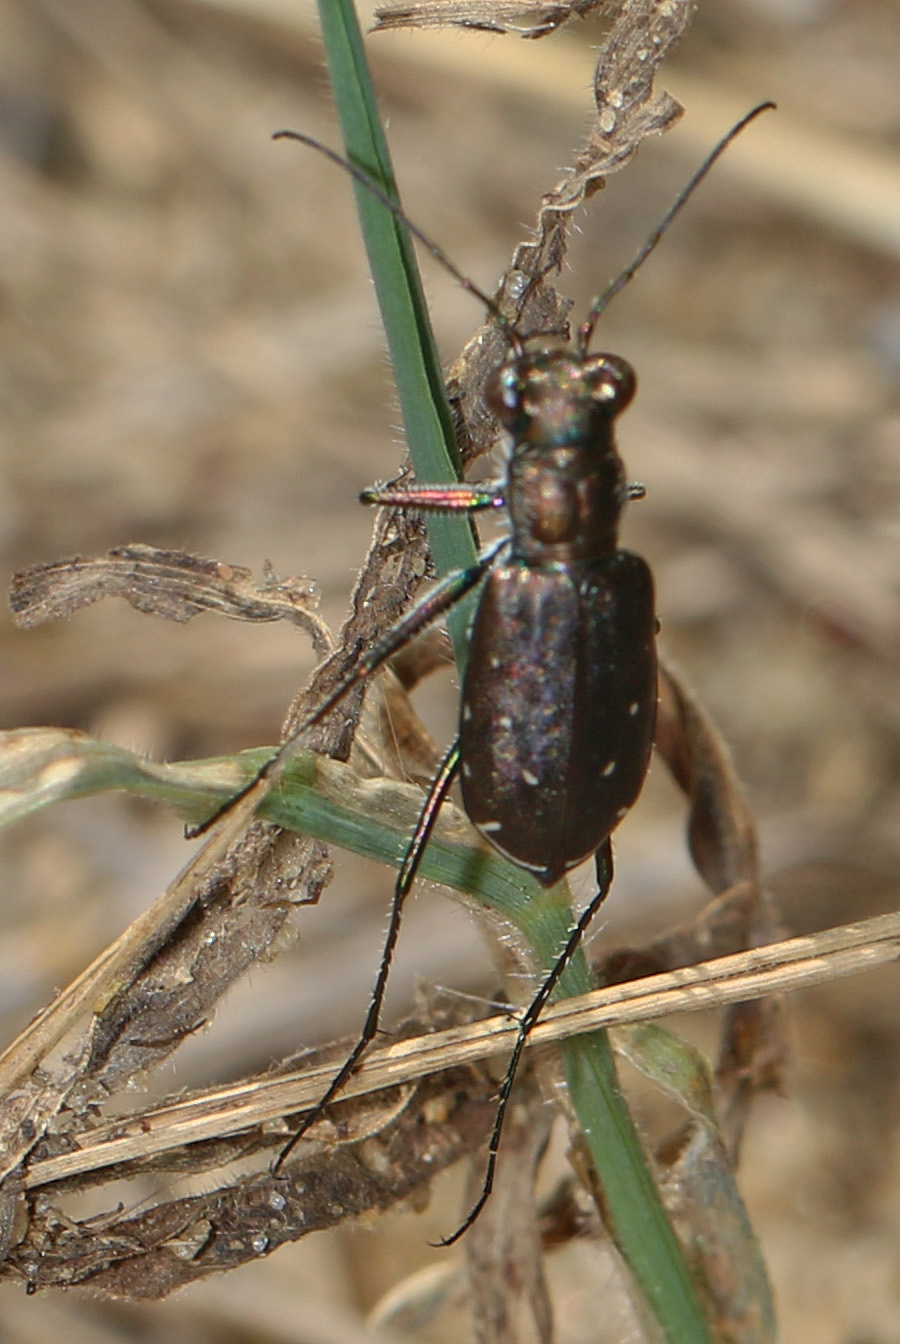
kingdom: Animalia
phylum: Arthropoda
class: Insecta
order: Coleoptera
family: Carabidae
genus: Cicindela
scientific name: Cicindela punctulata
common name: Punctured tiger beetle
